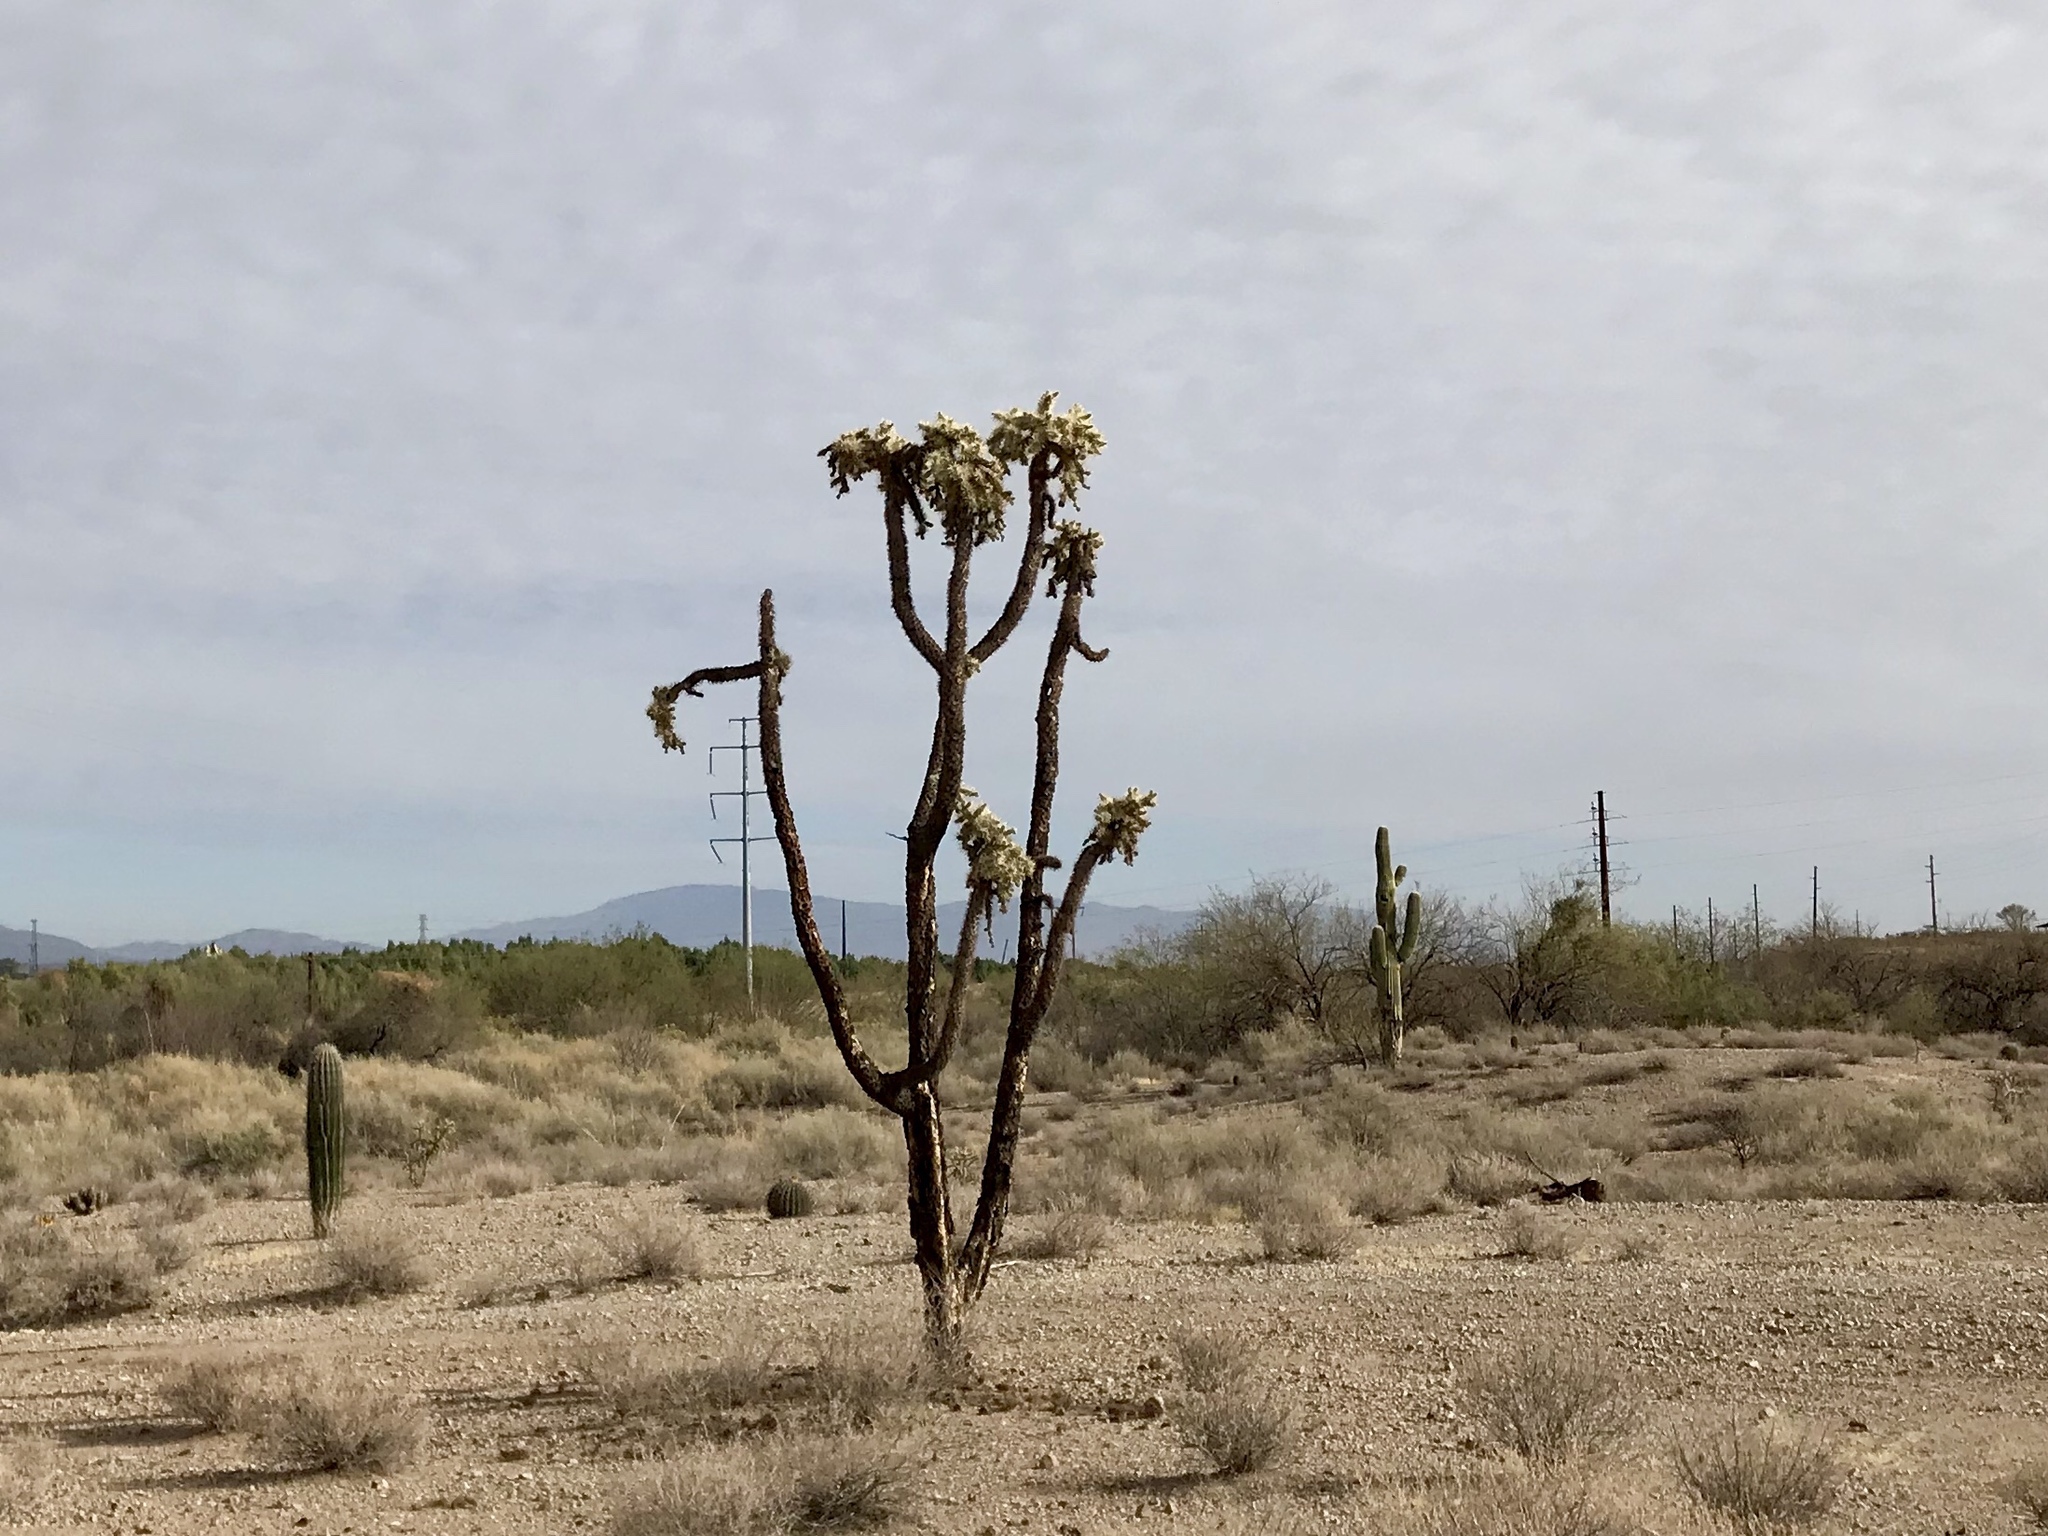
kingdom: Plantae
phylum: Tracheophyta
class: Magnoliopsida
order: Caryophyllales
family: Cactaceae
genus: Cylindropuntia
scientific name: Cylindropuntia fulgida
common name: Jumping cholla
